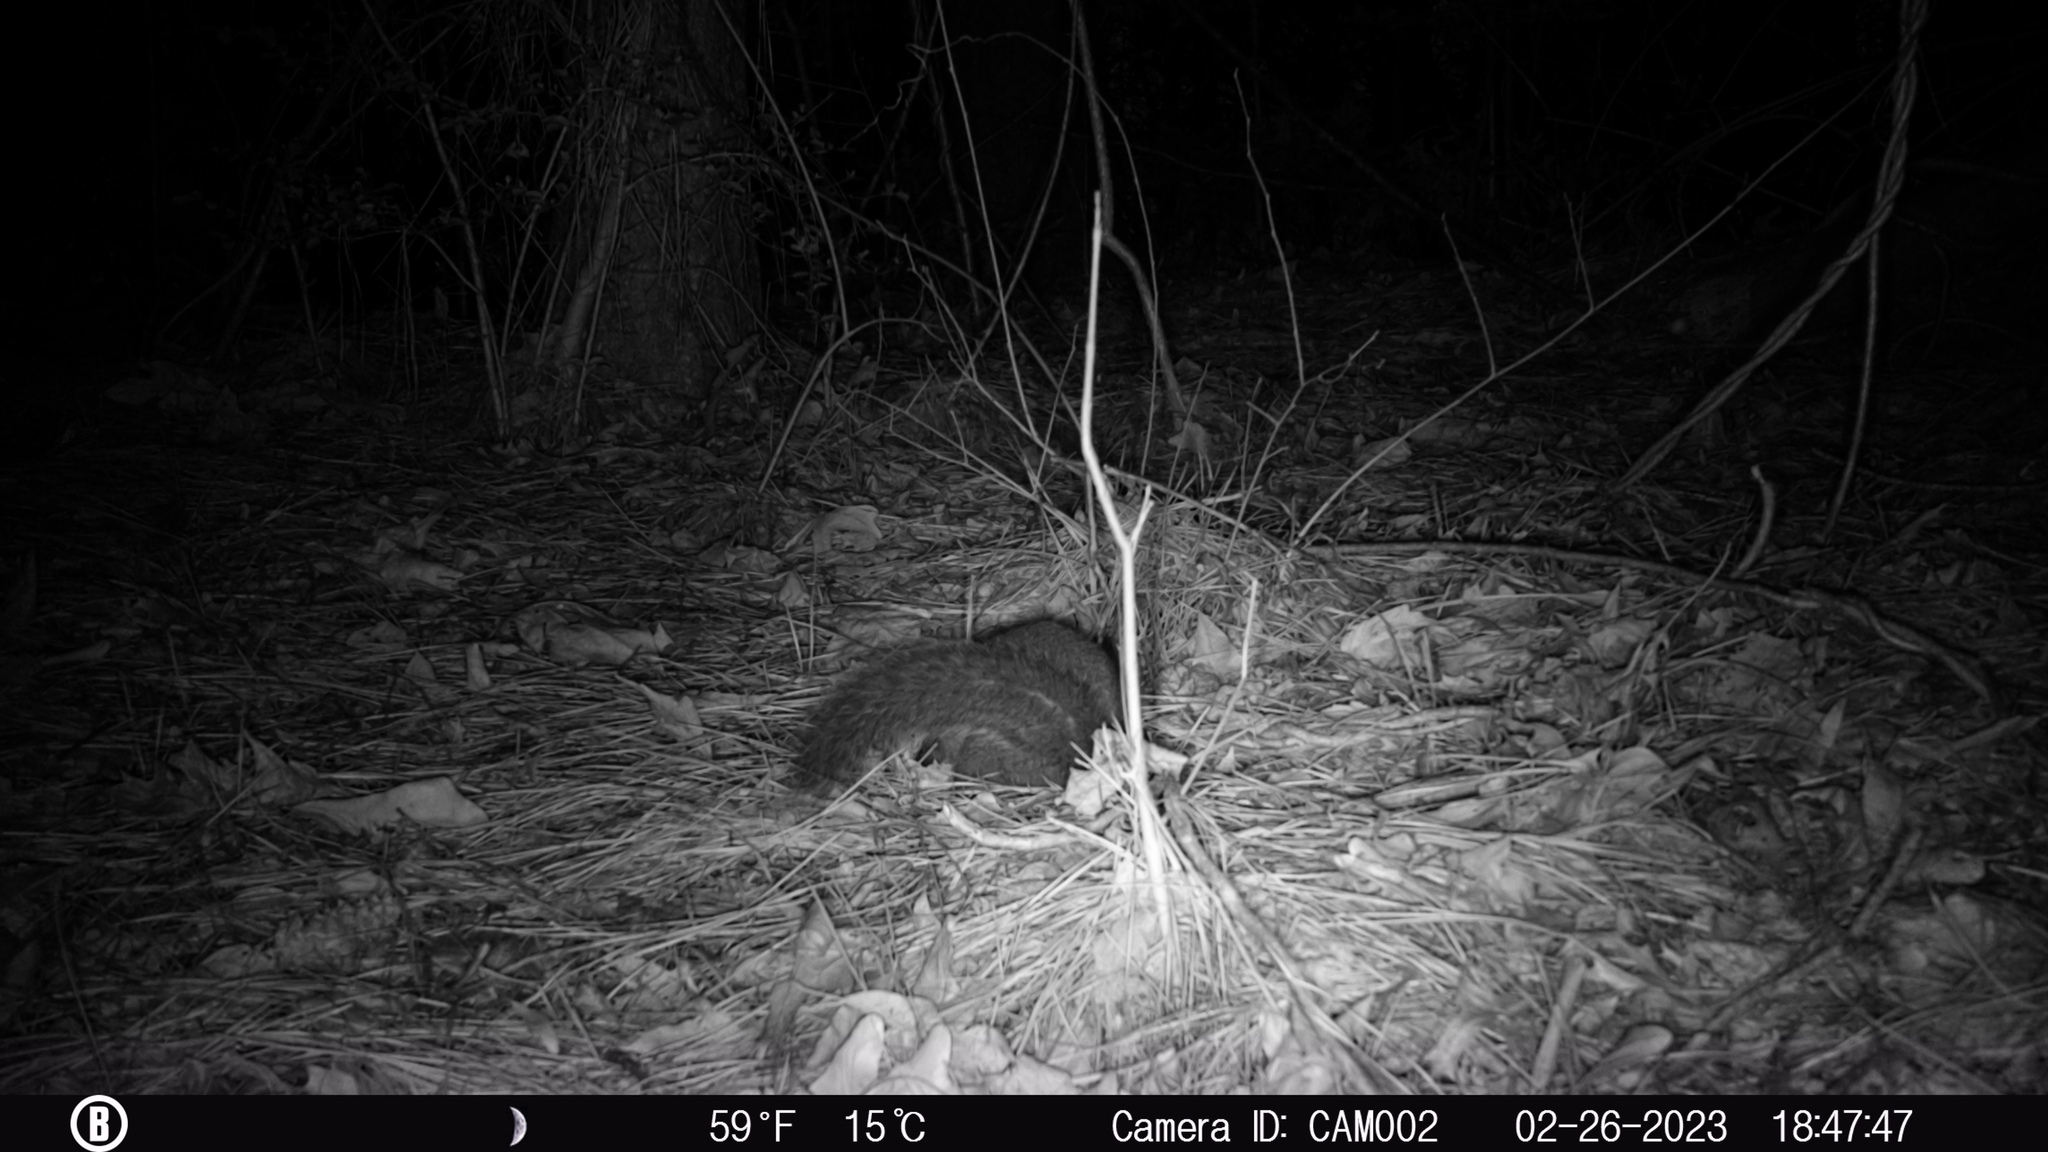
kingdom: Animalia
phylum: Chordata
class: Mammalia
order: Rodentia
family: Sciuridae
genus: Sciurus
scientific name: Sciurus carolinensis
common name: Eastern gray squirrel
